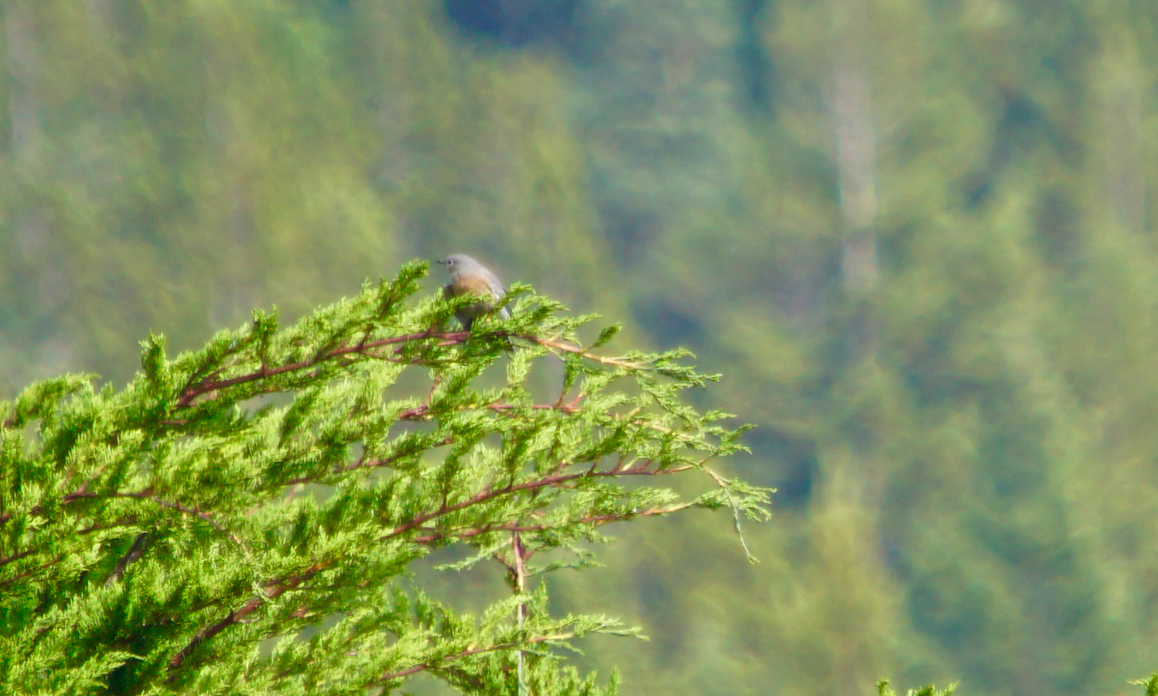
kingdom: Animalia
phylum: Chordata
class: Aves
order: Passeriformes
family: Turdidae
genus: Sialia
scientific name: Sialia mexicana
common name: Western bluebird
